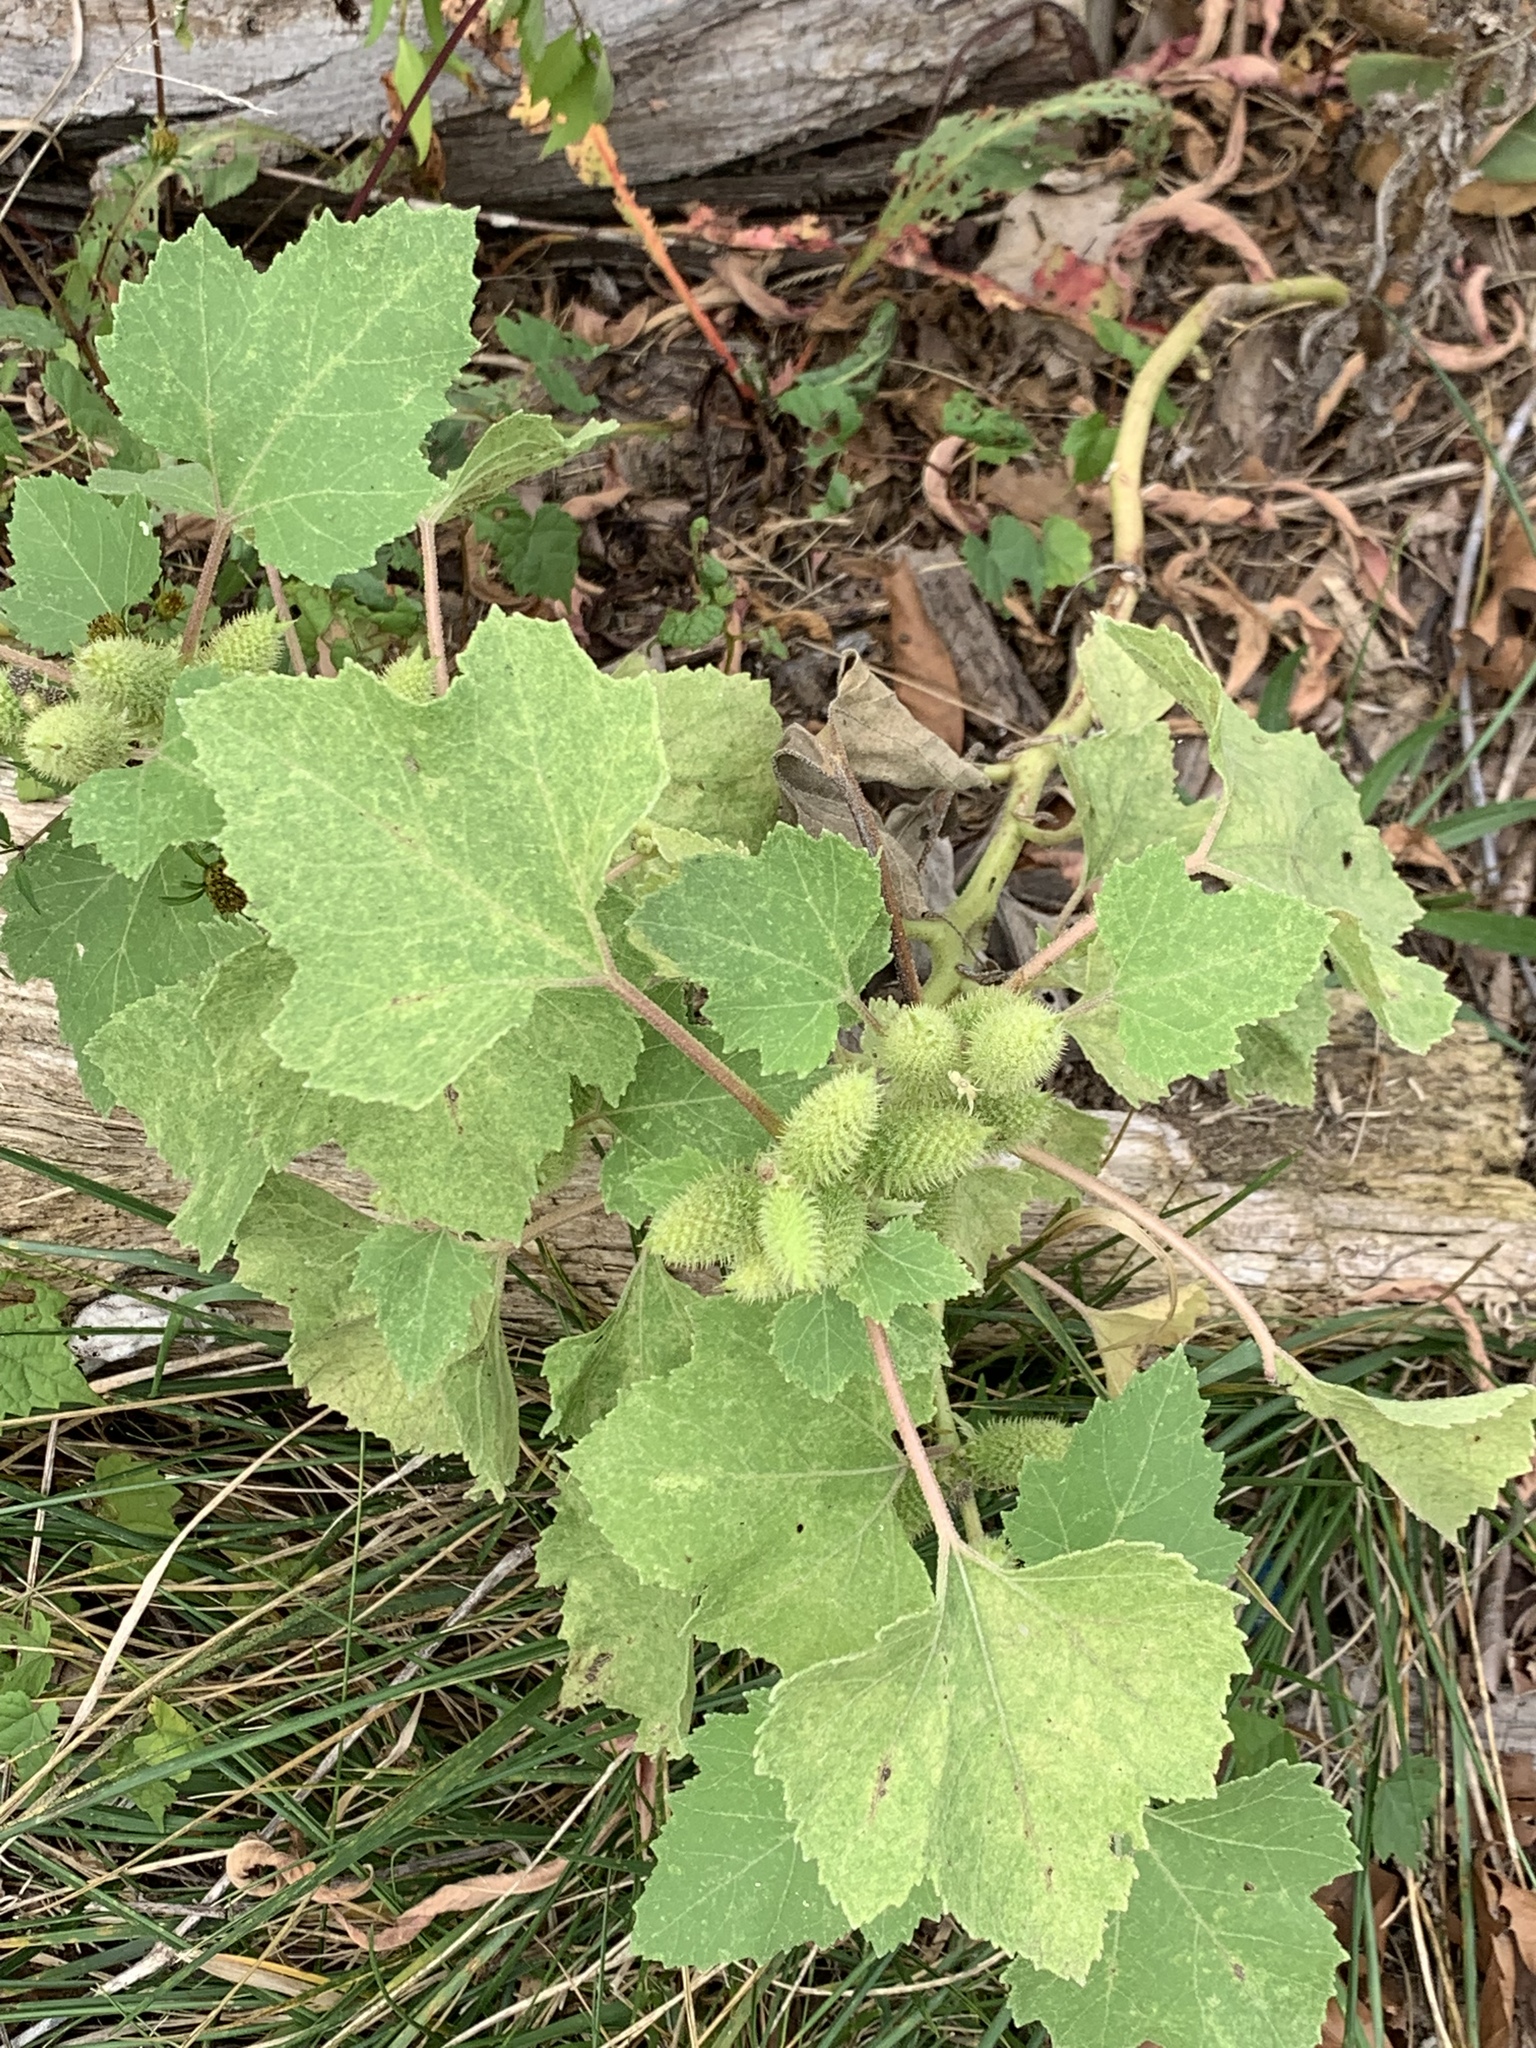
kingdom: Plantae
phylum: Tracheophyta
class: Magnoliopsida
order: Asterales
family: Asteraceae
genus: Xanthium
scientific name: Xanthium strumarium
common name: Rough cocklebur
